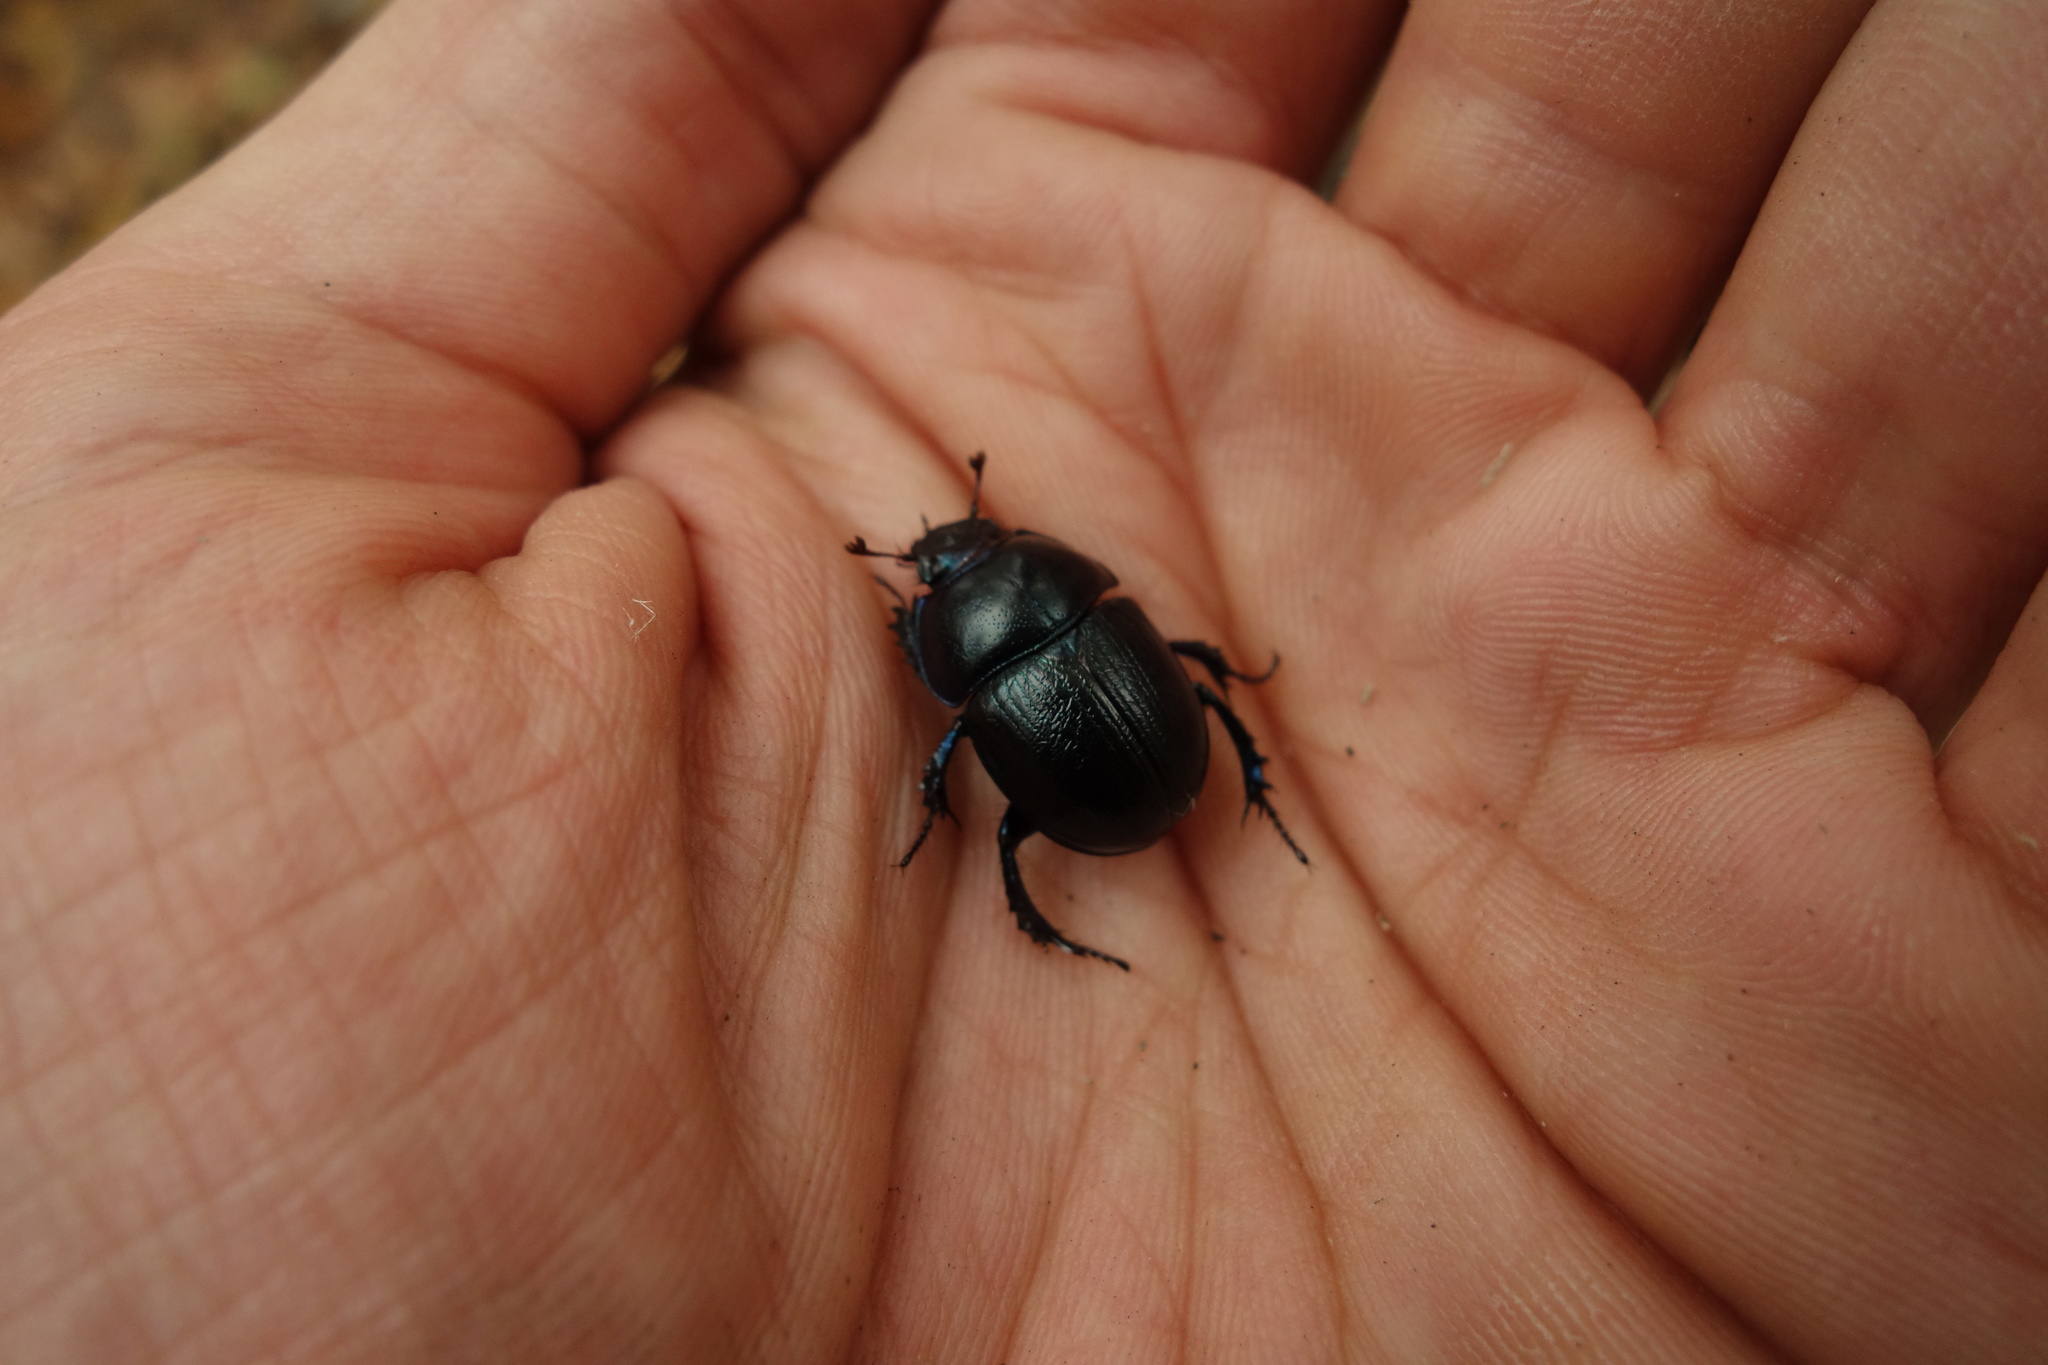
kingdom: Animalia
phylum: Arthropoda
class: Insecta
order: Coleoptera
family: Geotrupidae
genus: Anoplotrupes
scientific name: Anoplotrupes stercorosus
